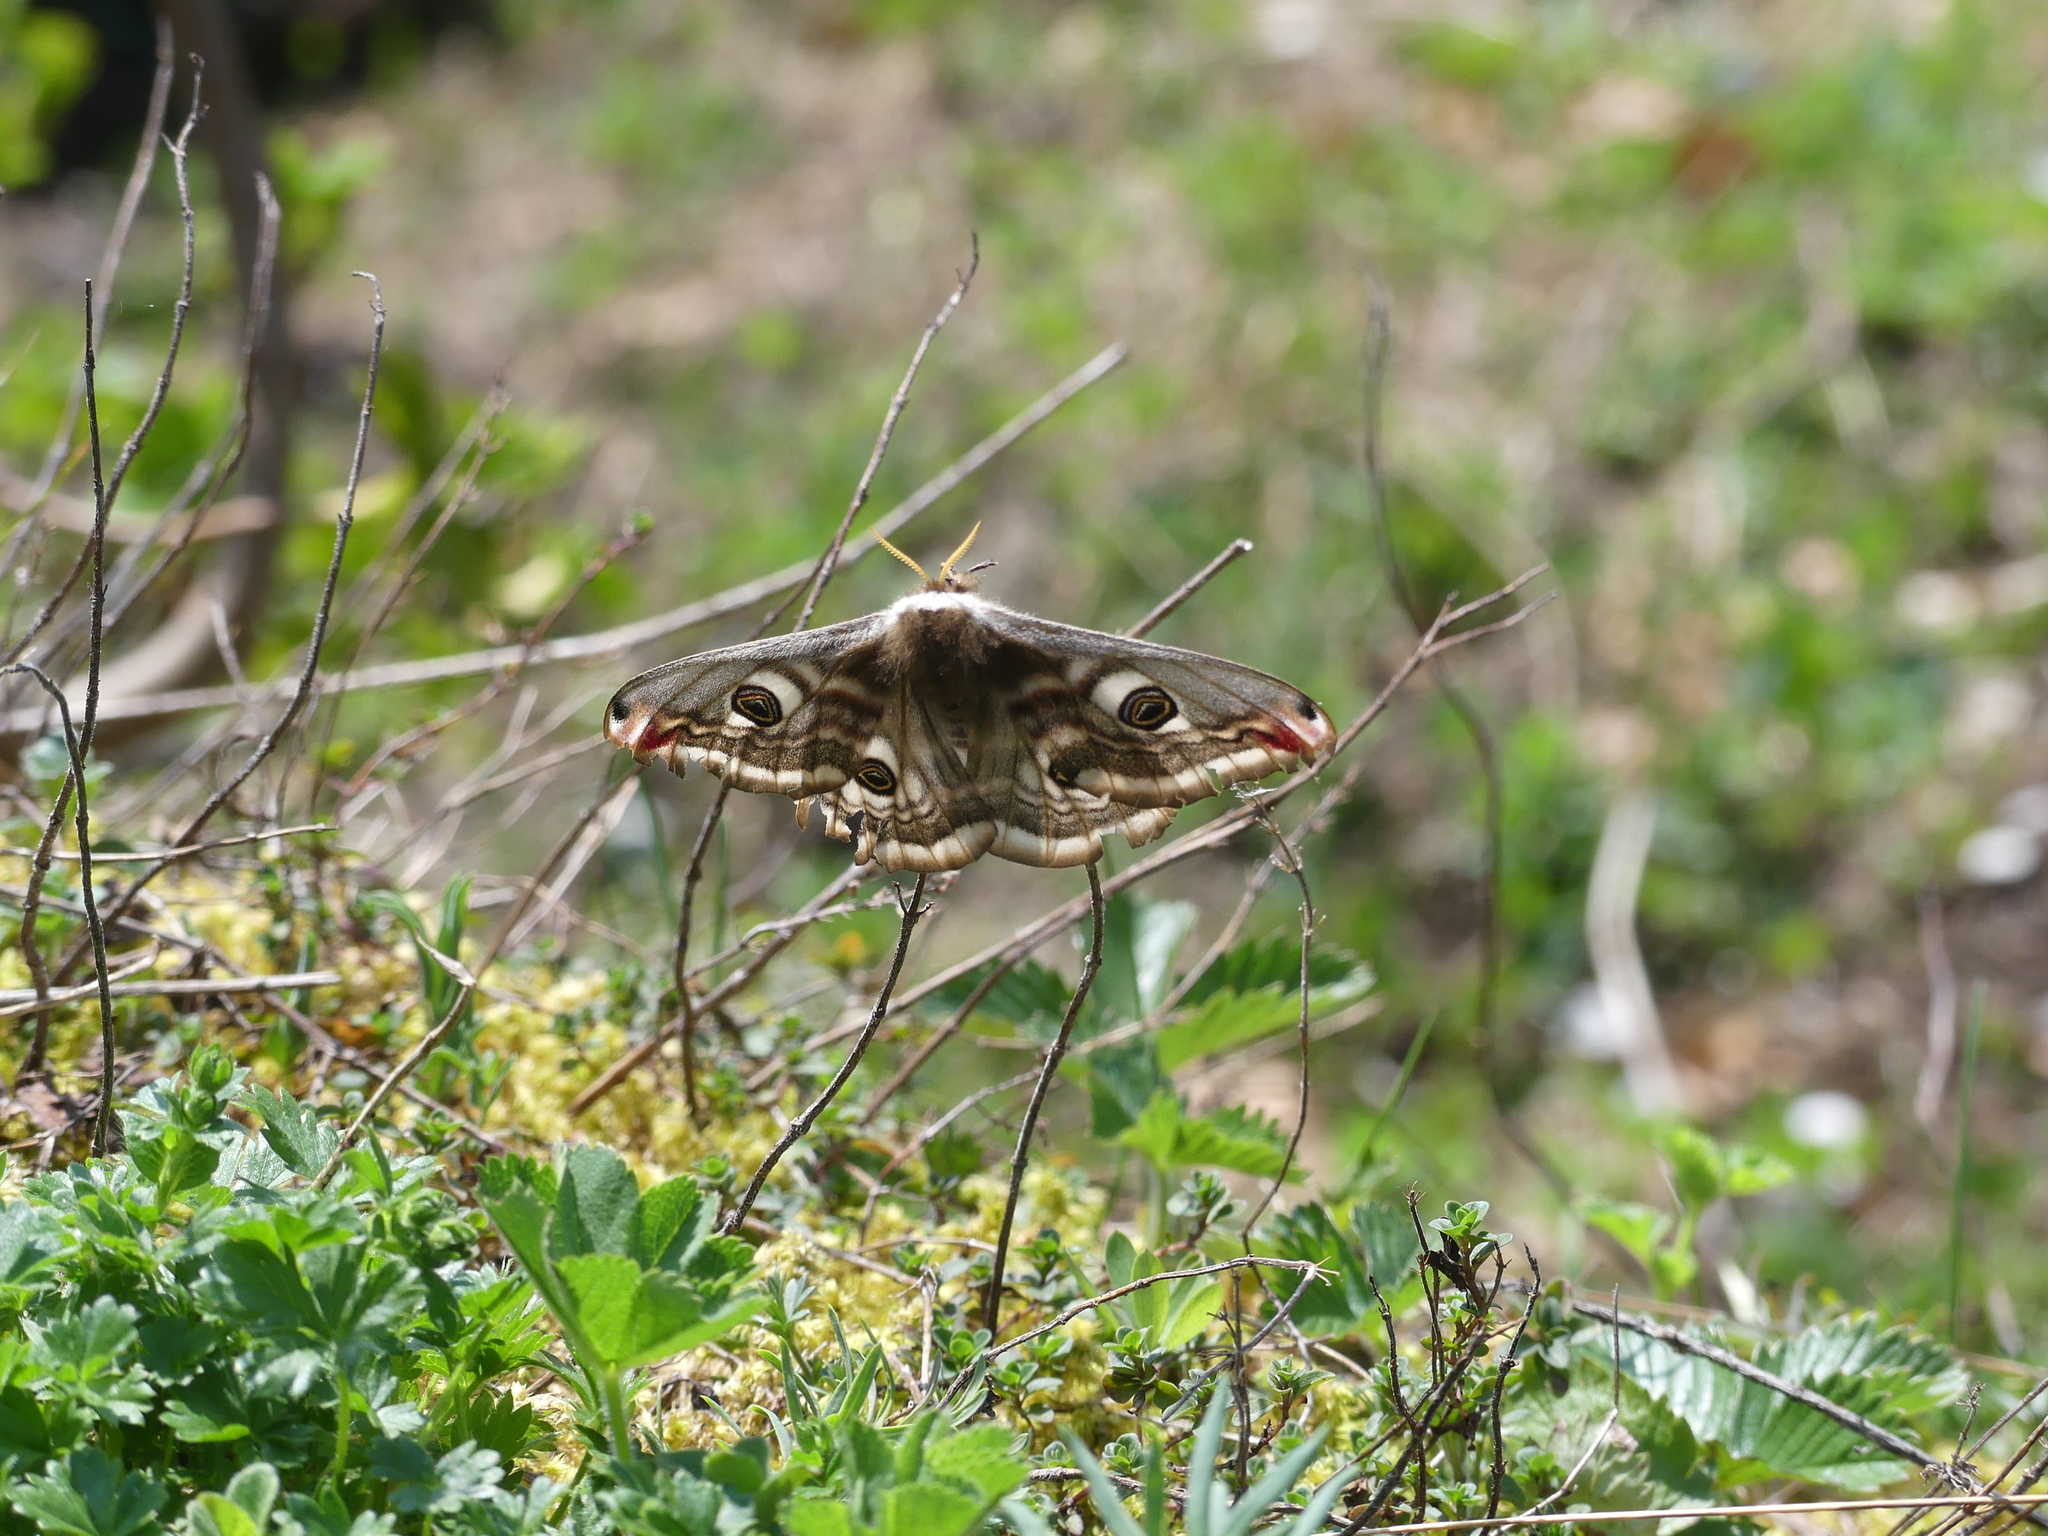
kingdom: Animalia
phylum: Arthropoda
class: Insecta
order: Lepidoptera
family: Saturniidae
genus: Saturnia
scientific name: Saturnia pavonia
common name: Emperor moth
